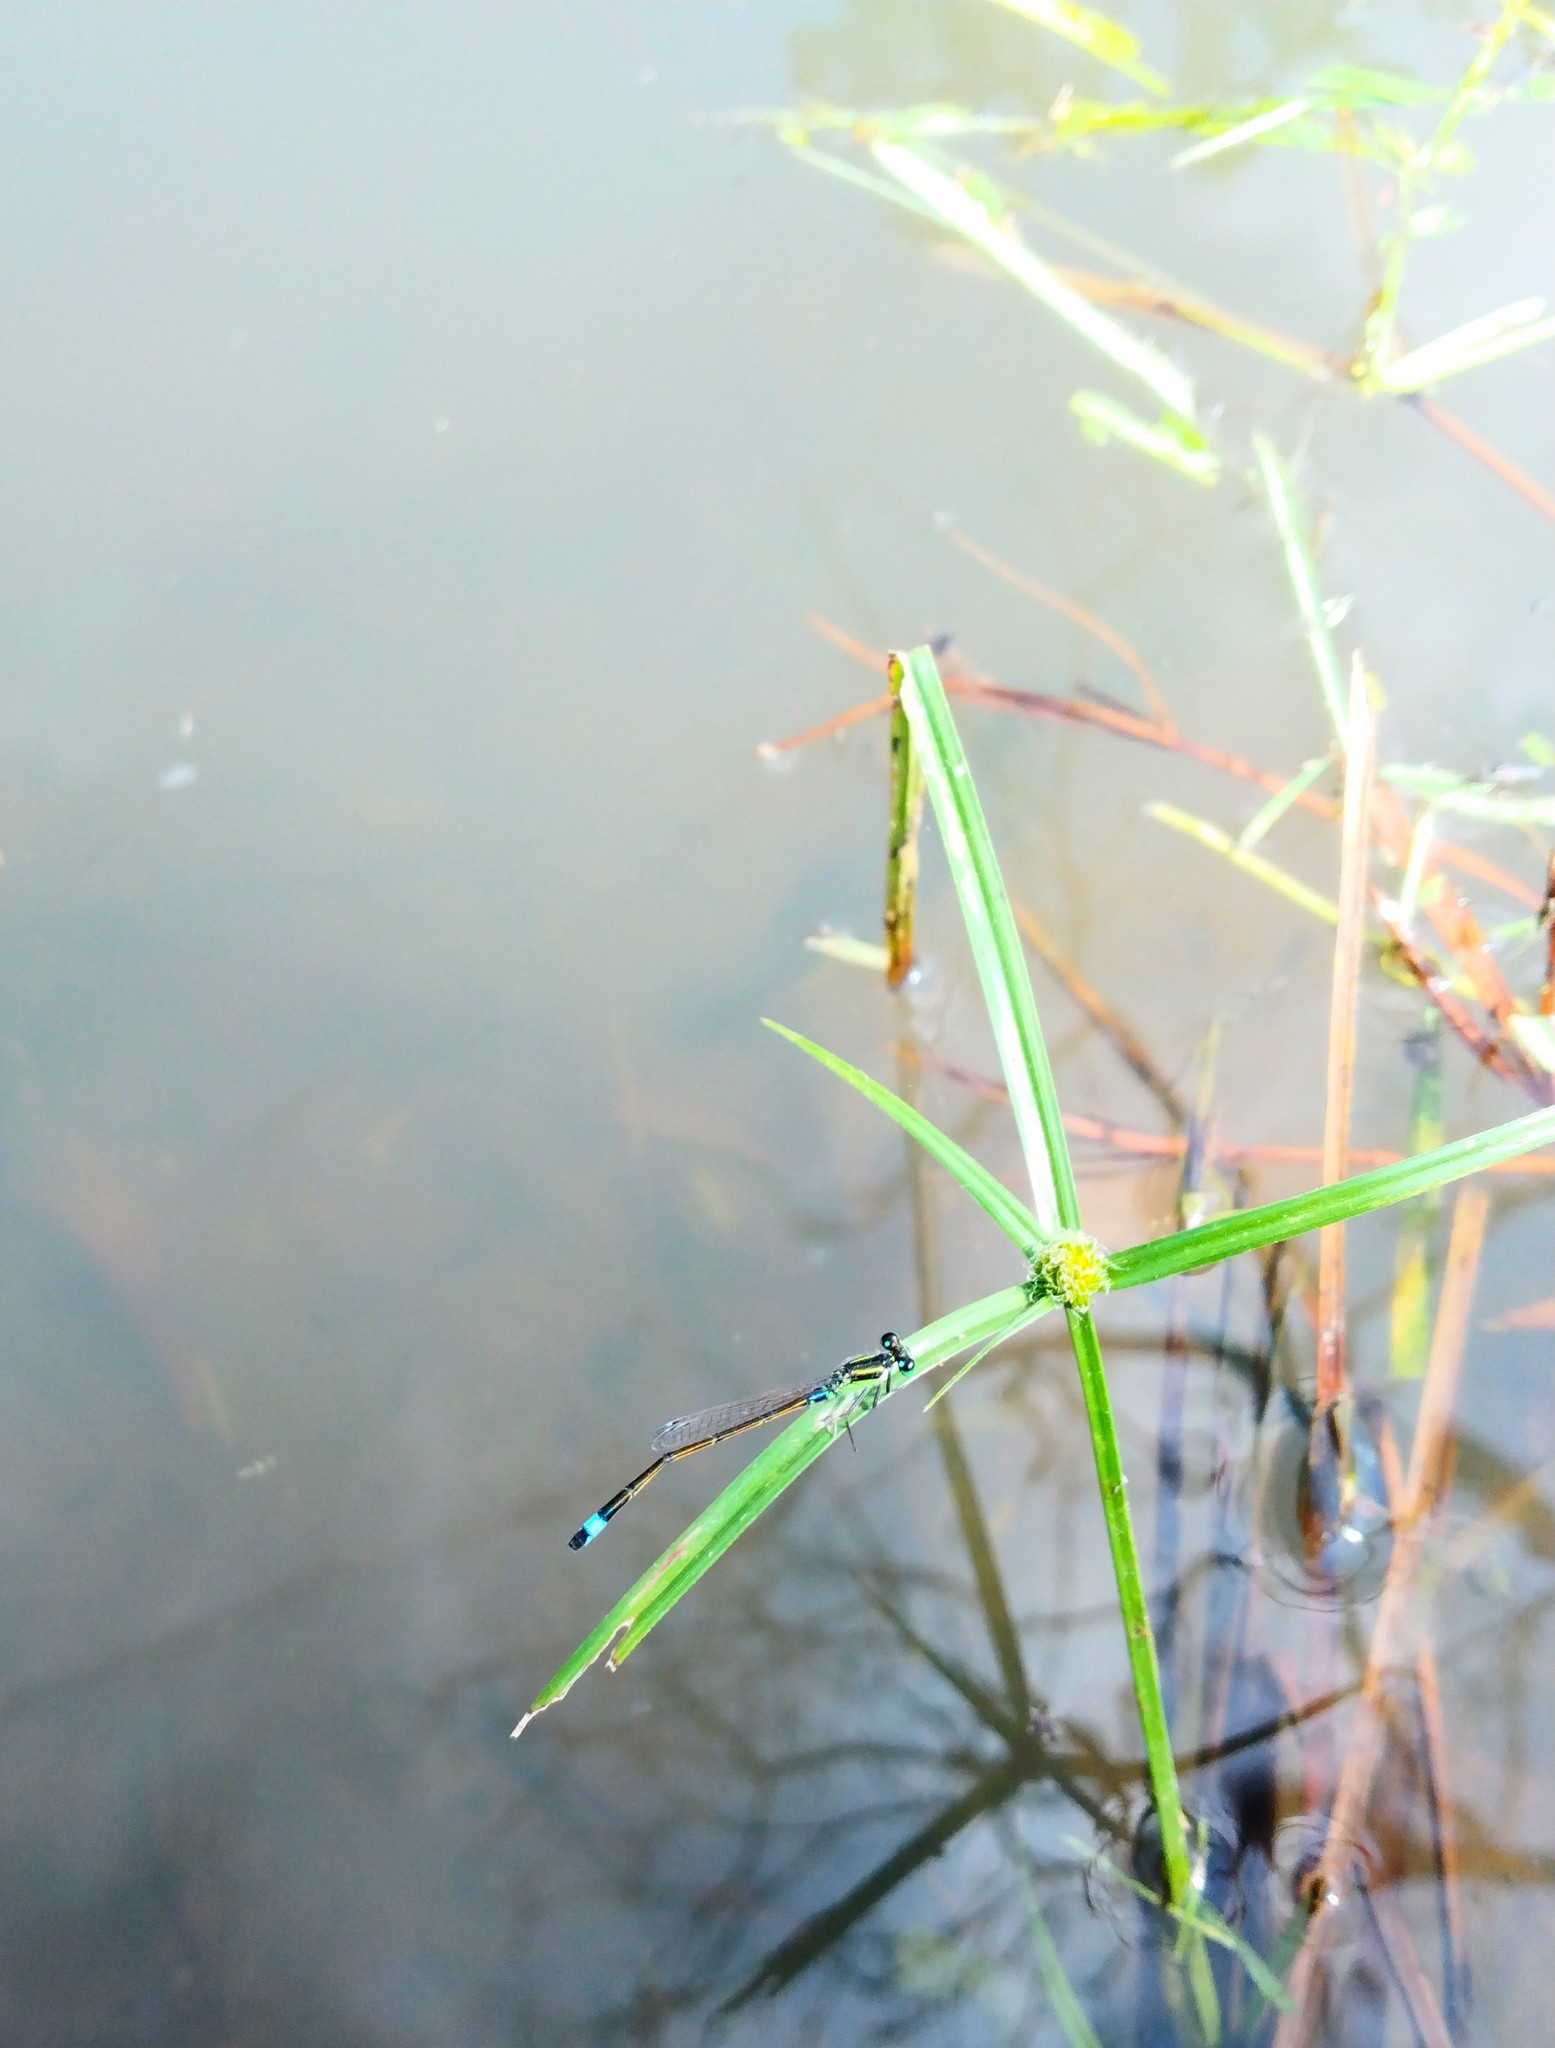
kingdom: Animalia
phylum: Arthropoda
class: Insecta
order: Odonata
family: Coenagrionidae
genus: Ischnura
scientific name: Ischnura senegalensis
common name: Tropical bluetail
